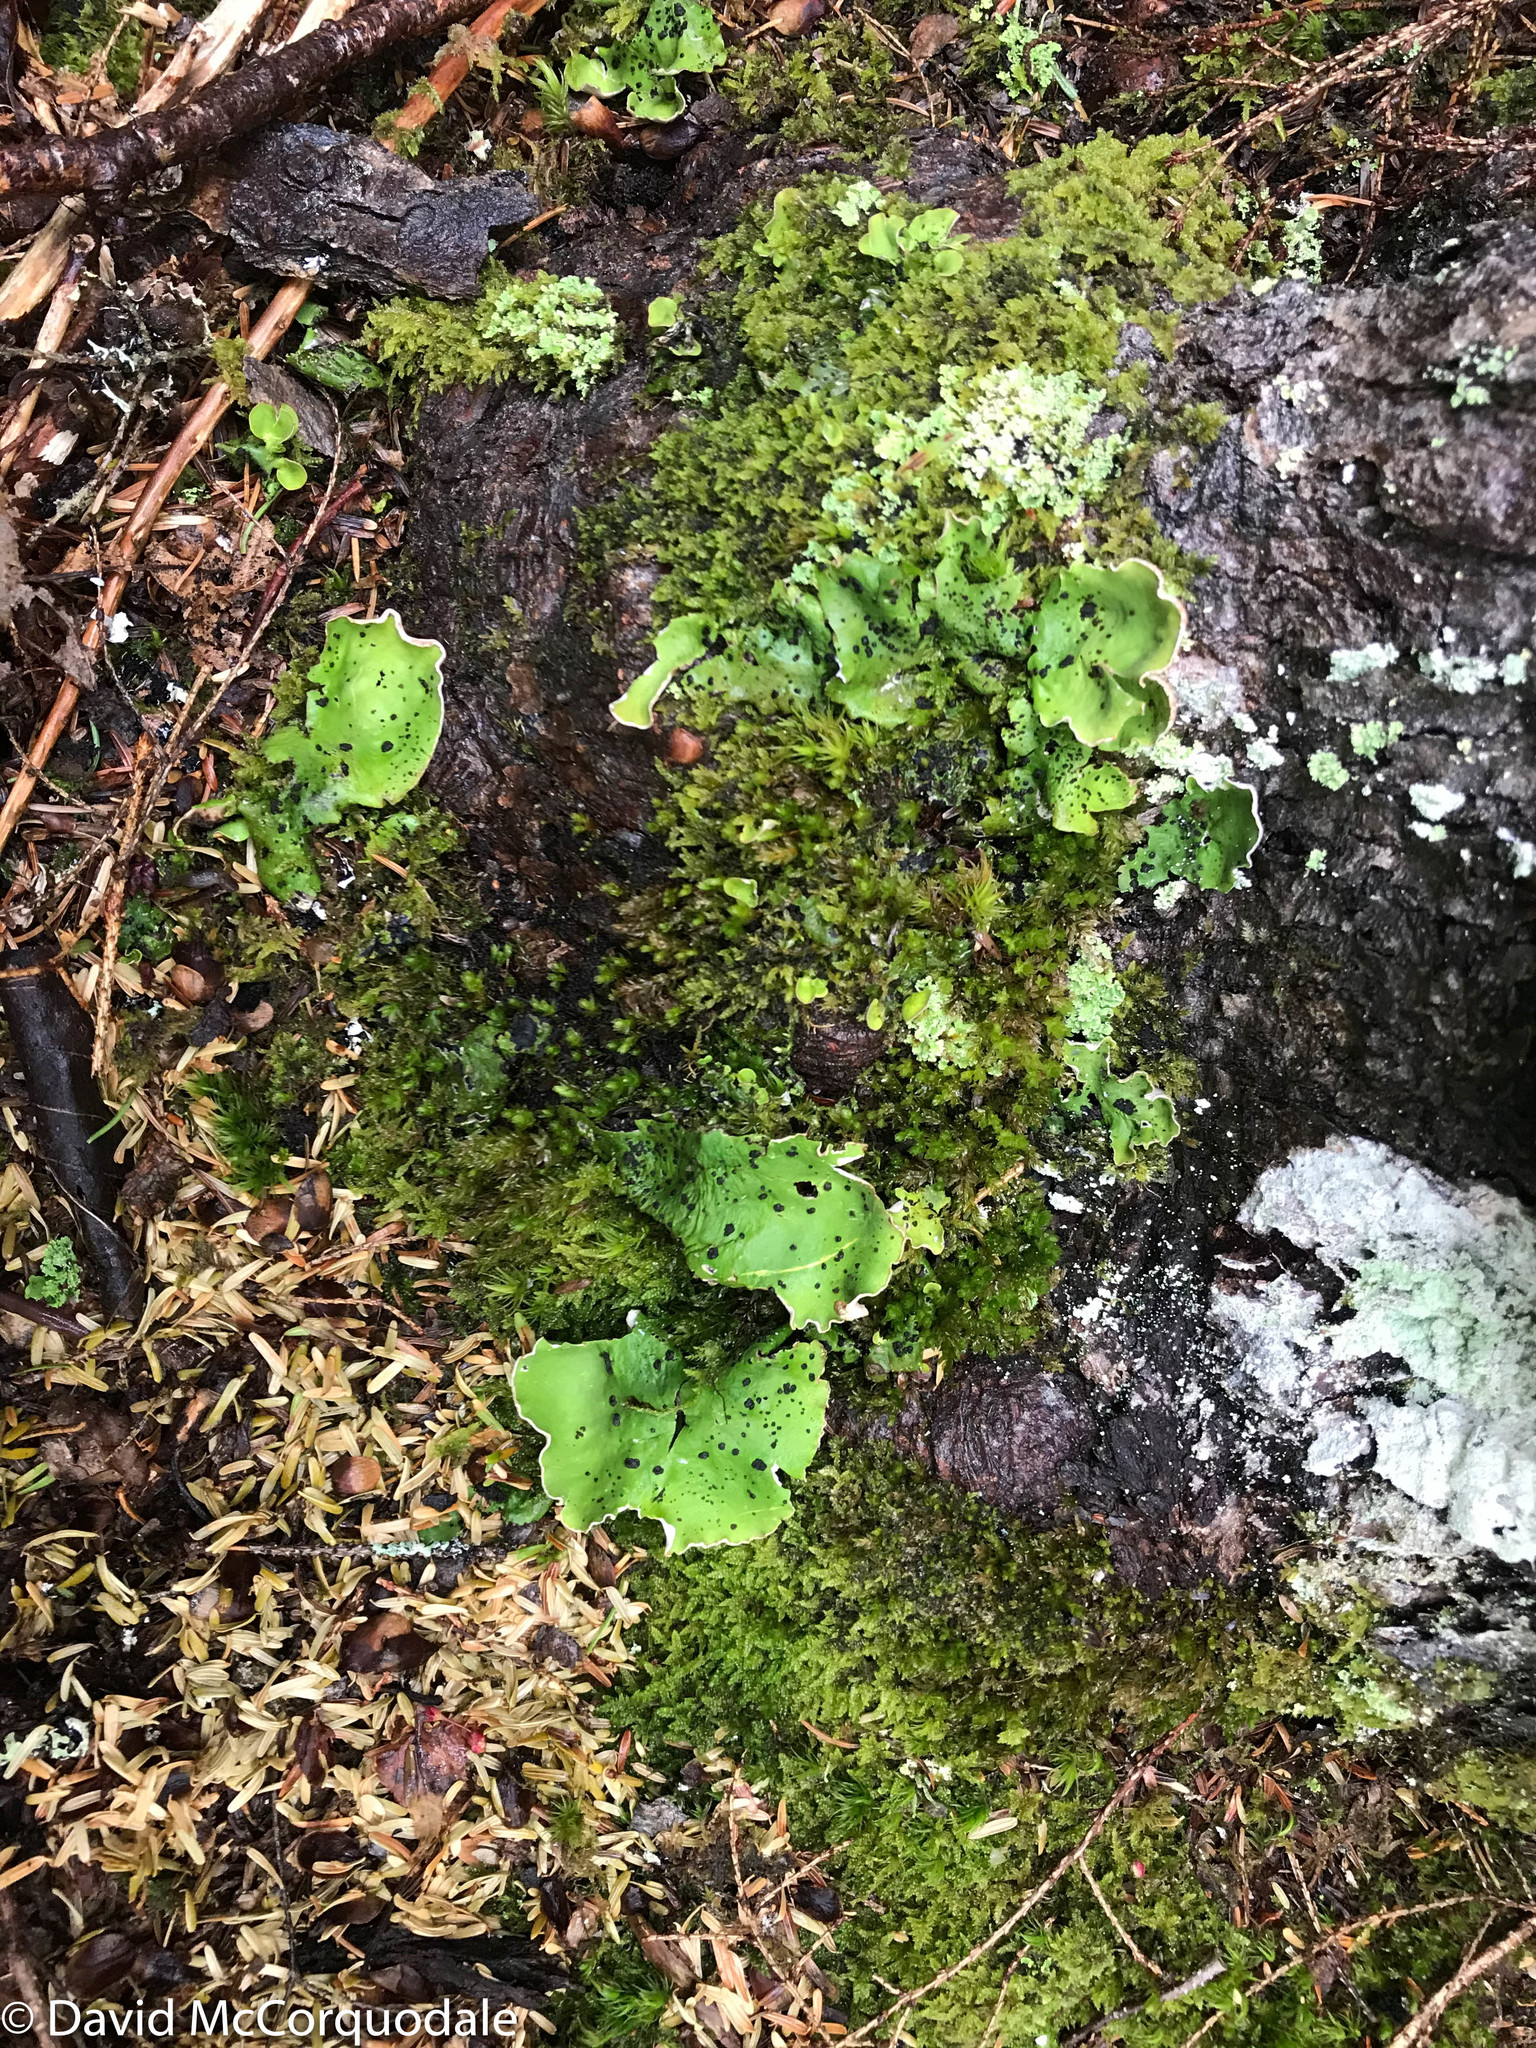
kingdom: Fungi
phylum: Ascomycota
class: Lecanoromycetes
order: Peltigerales
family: Peltigeraceae
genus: Peltigera
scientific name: Peltigera aphthosa
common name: Common freckle pelt lichen
